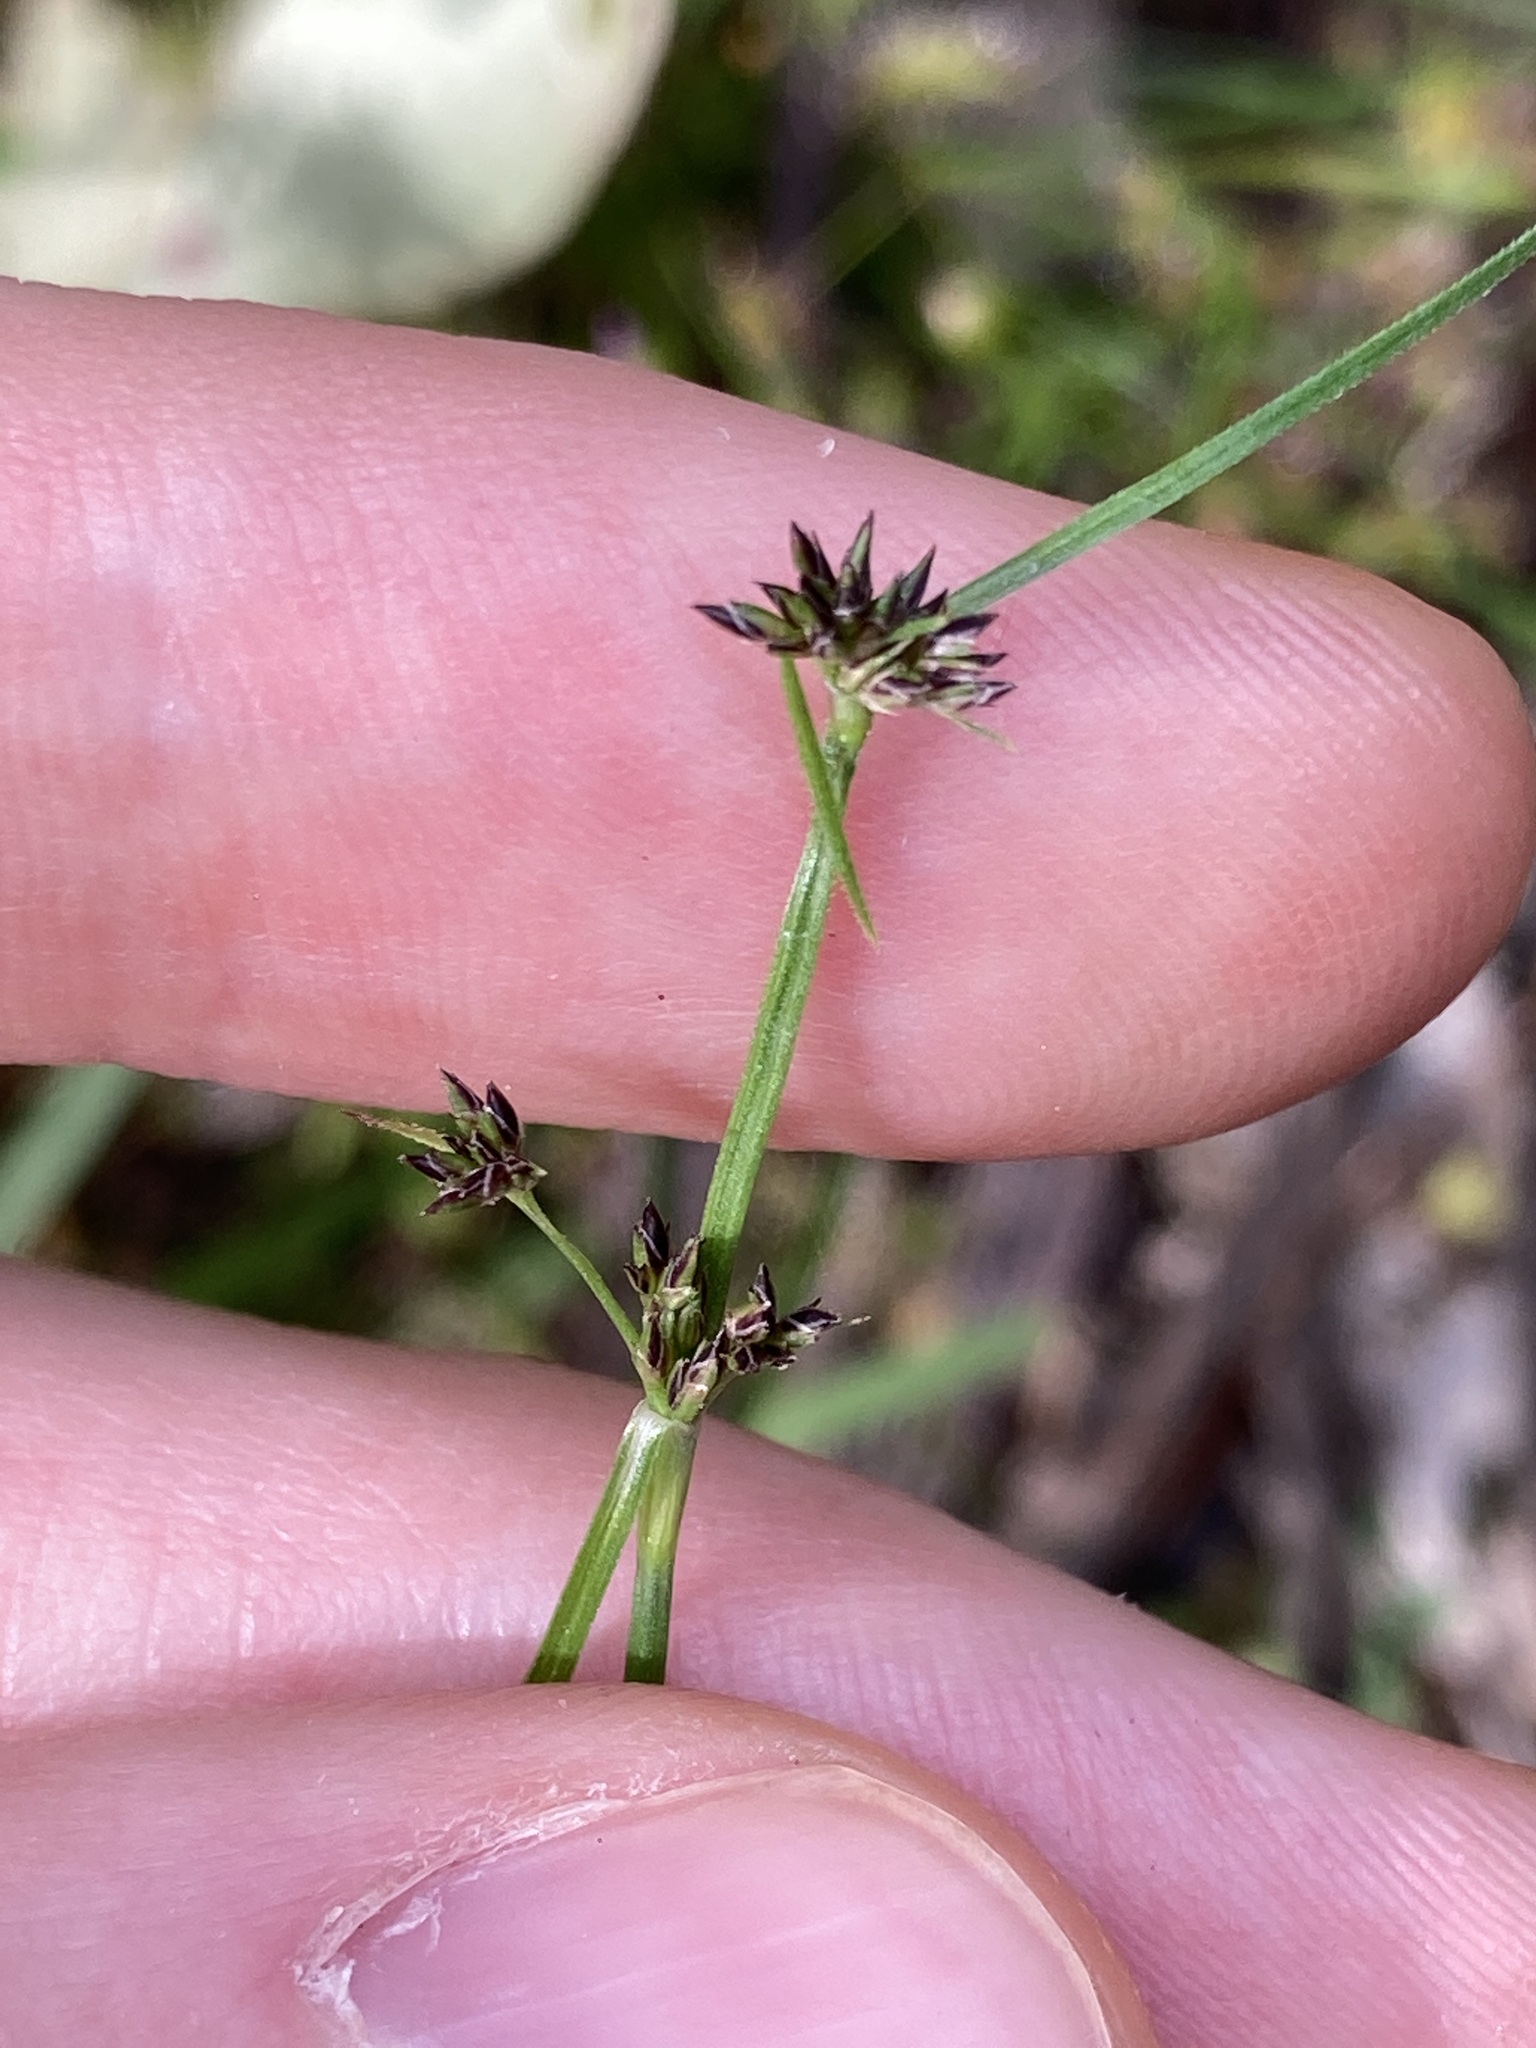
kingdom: Plantae
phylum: Tracheophyta
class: Liliopsida
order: Poales
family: Cyperaceae
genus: Schoenus
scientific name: Schoenus apogon
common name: Smooth bogrush
